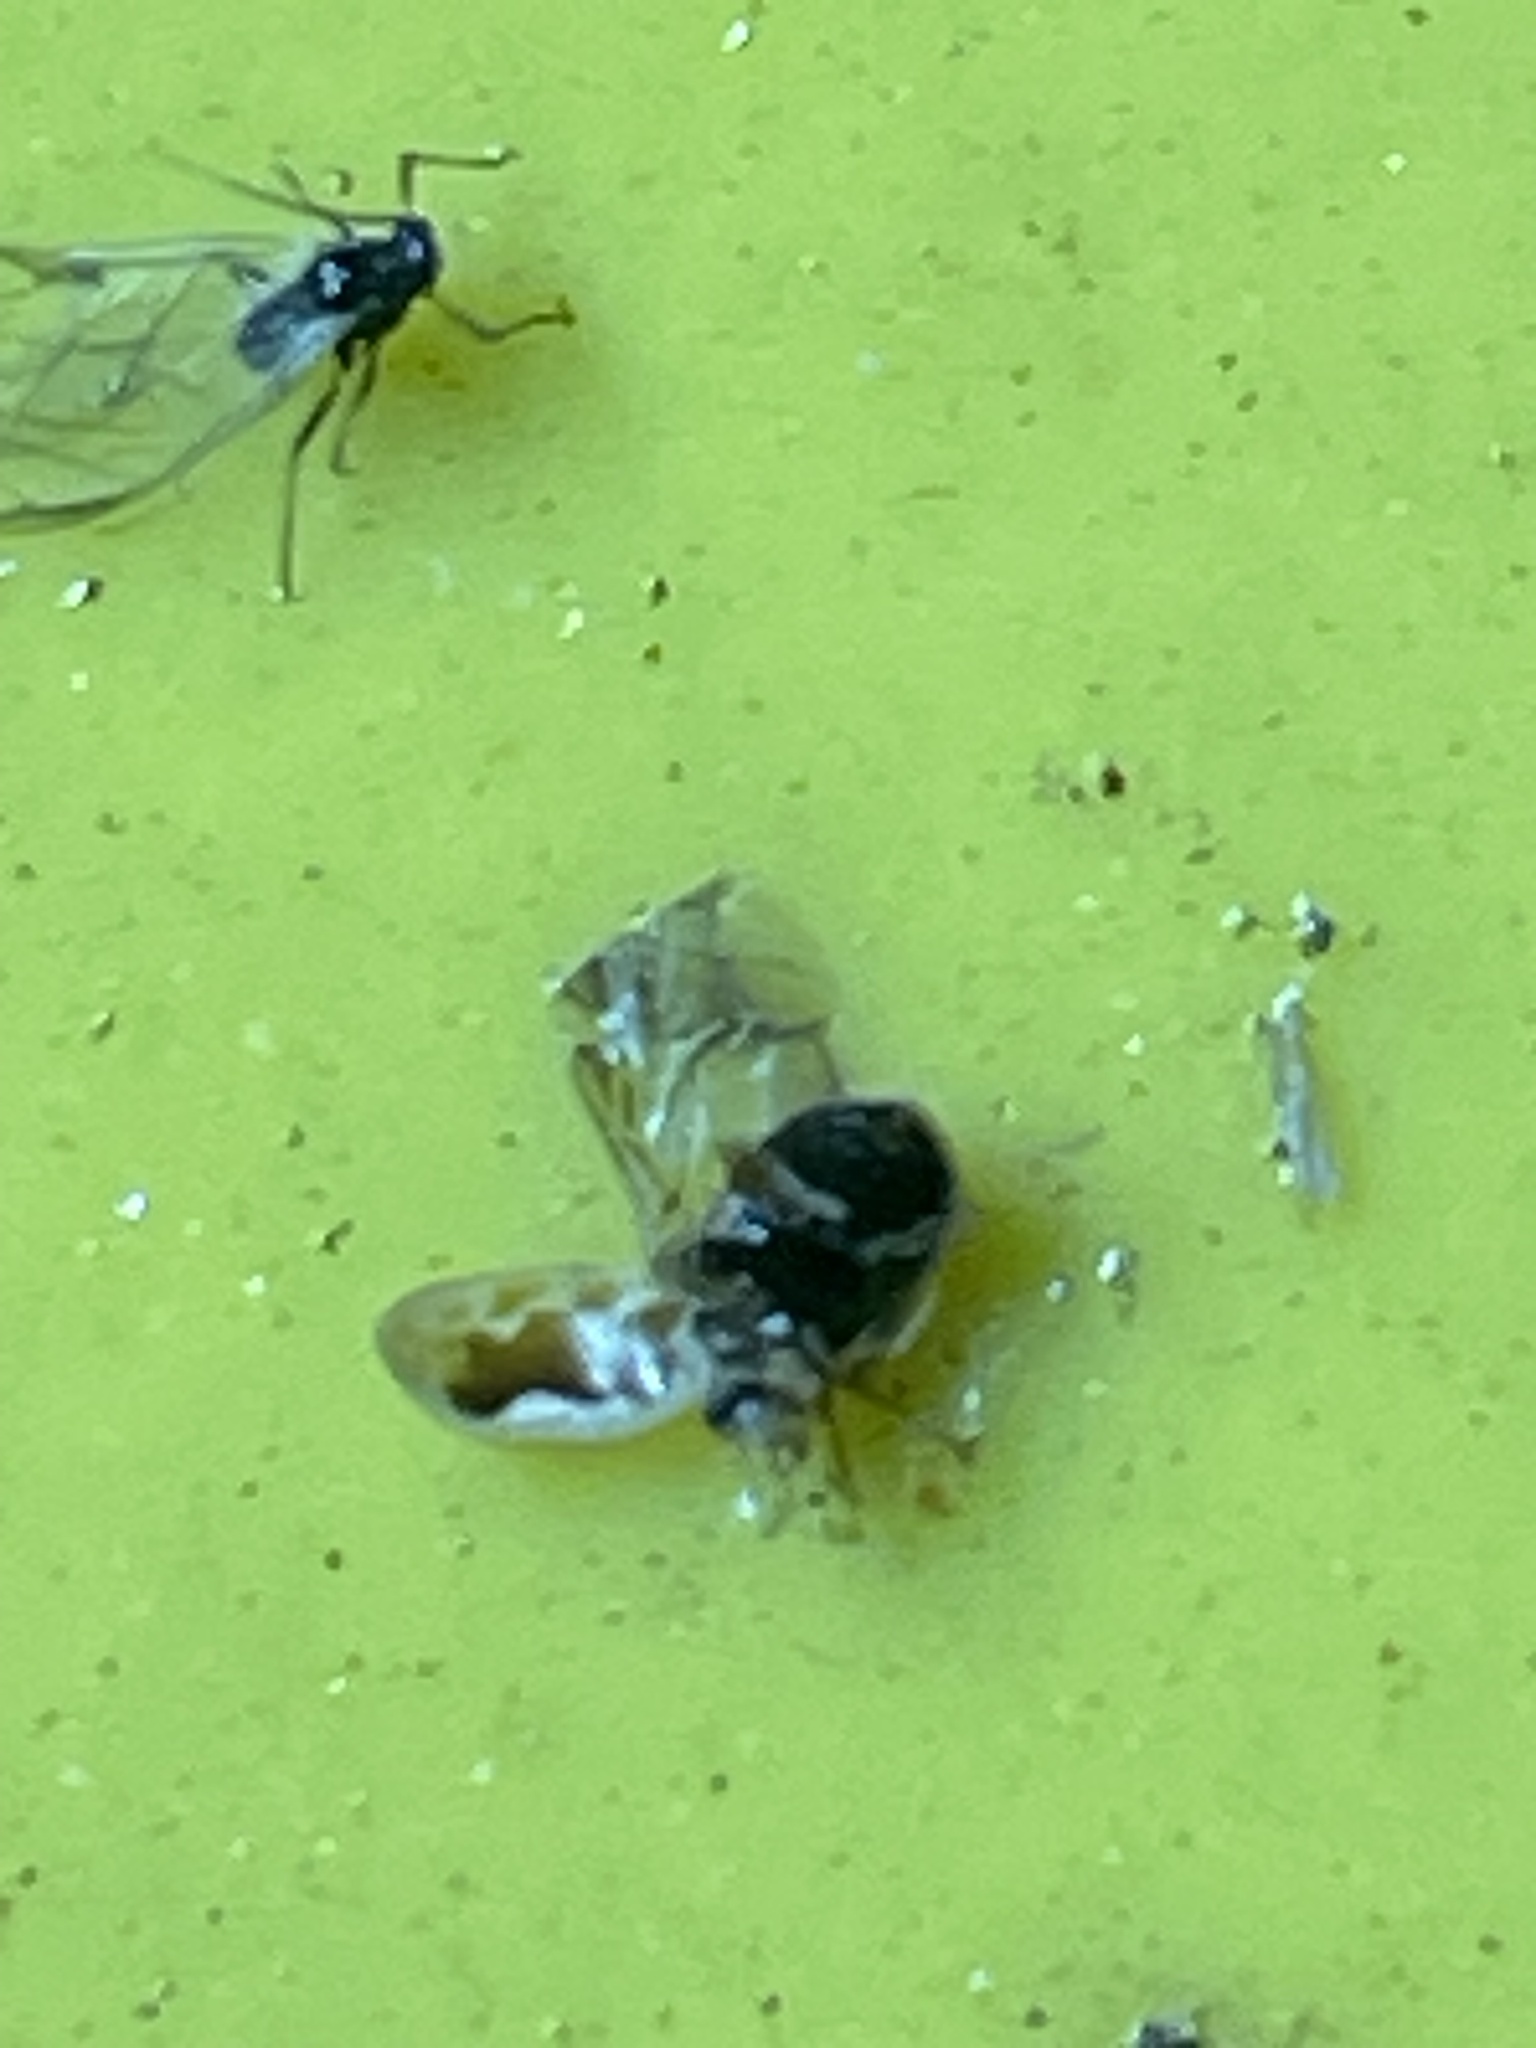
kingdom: Animalia
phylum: Arthropoda
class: Insecta
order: Coleoptera
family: Coccinellidae
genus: Psyllobora
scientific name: Psyllobora renifer
